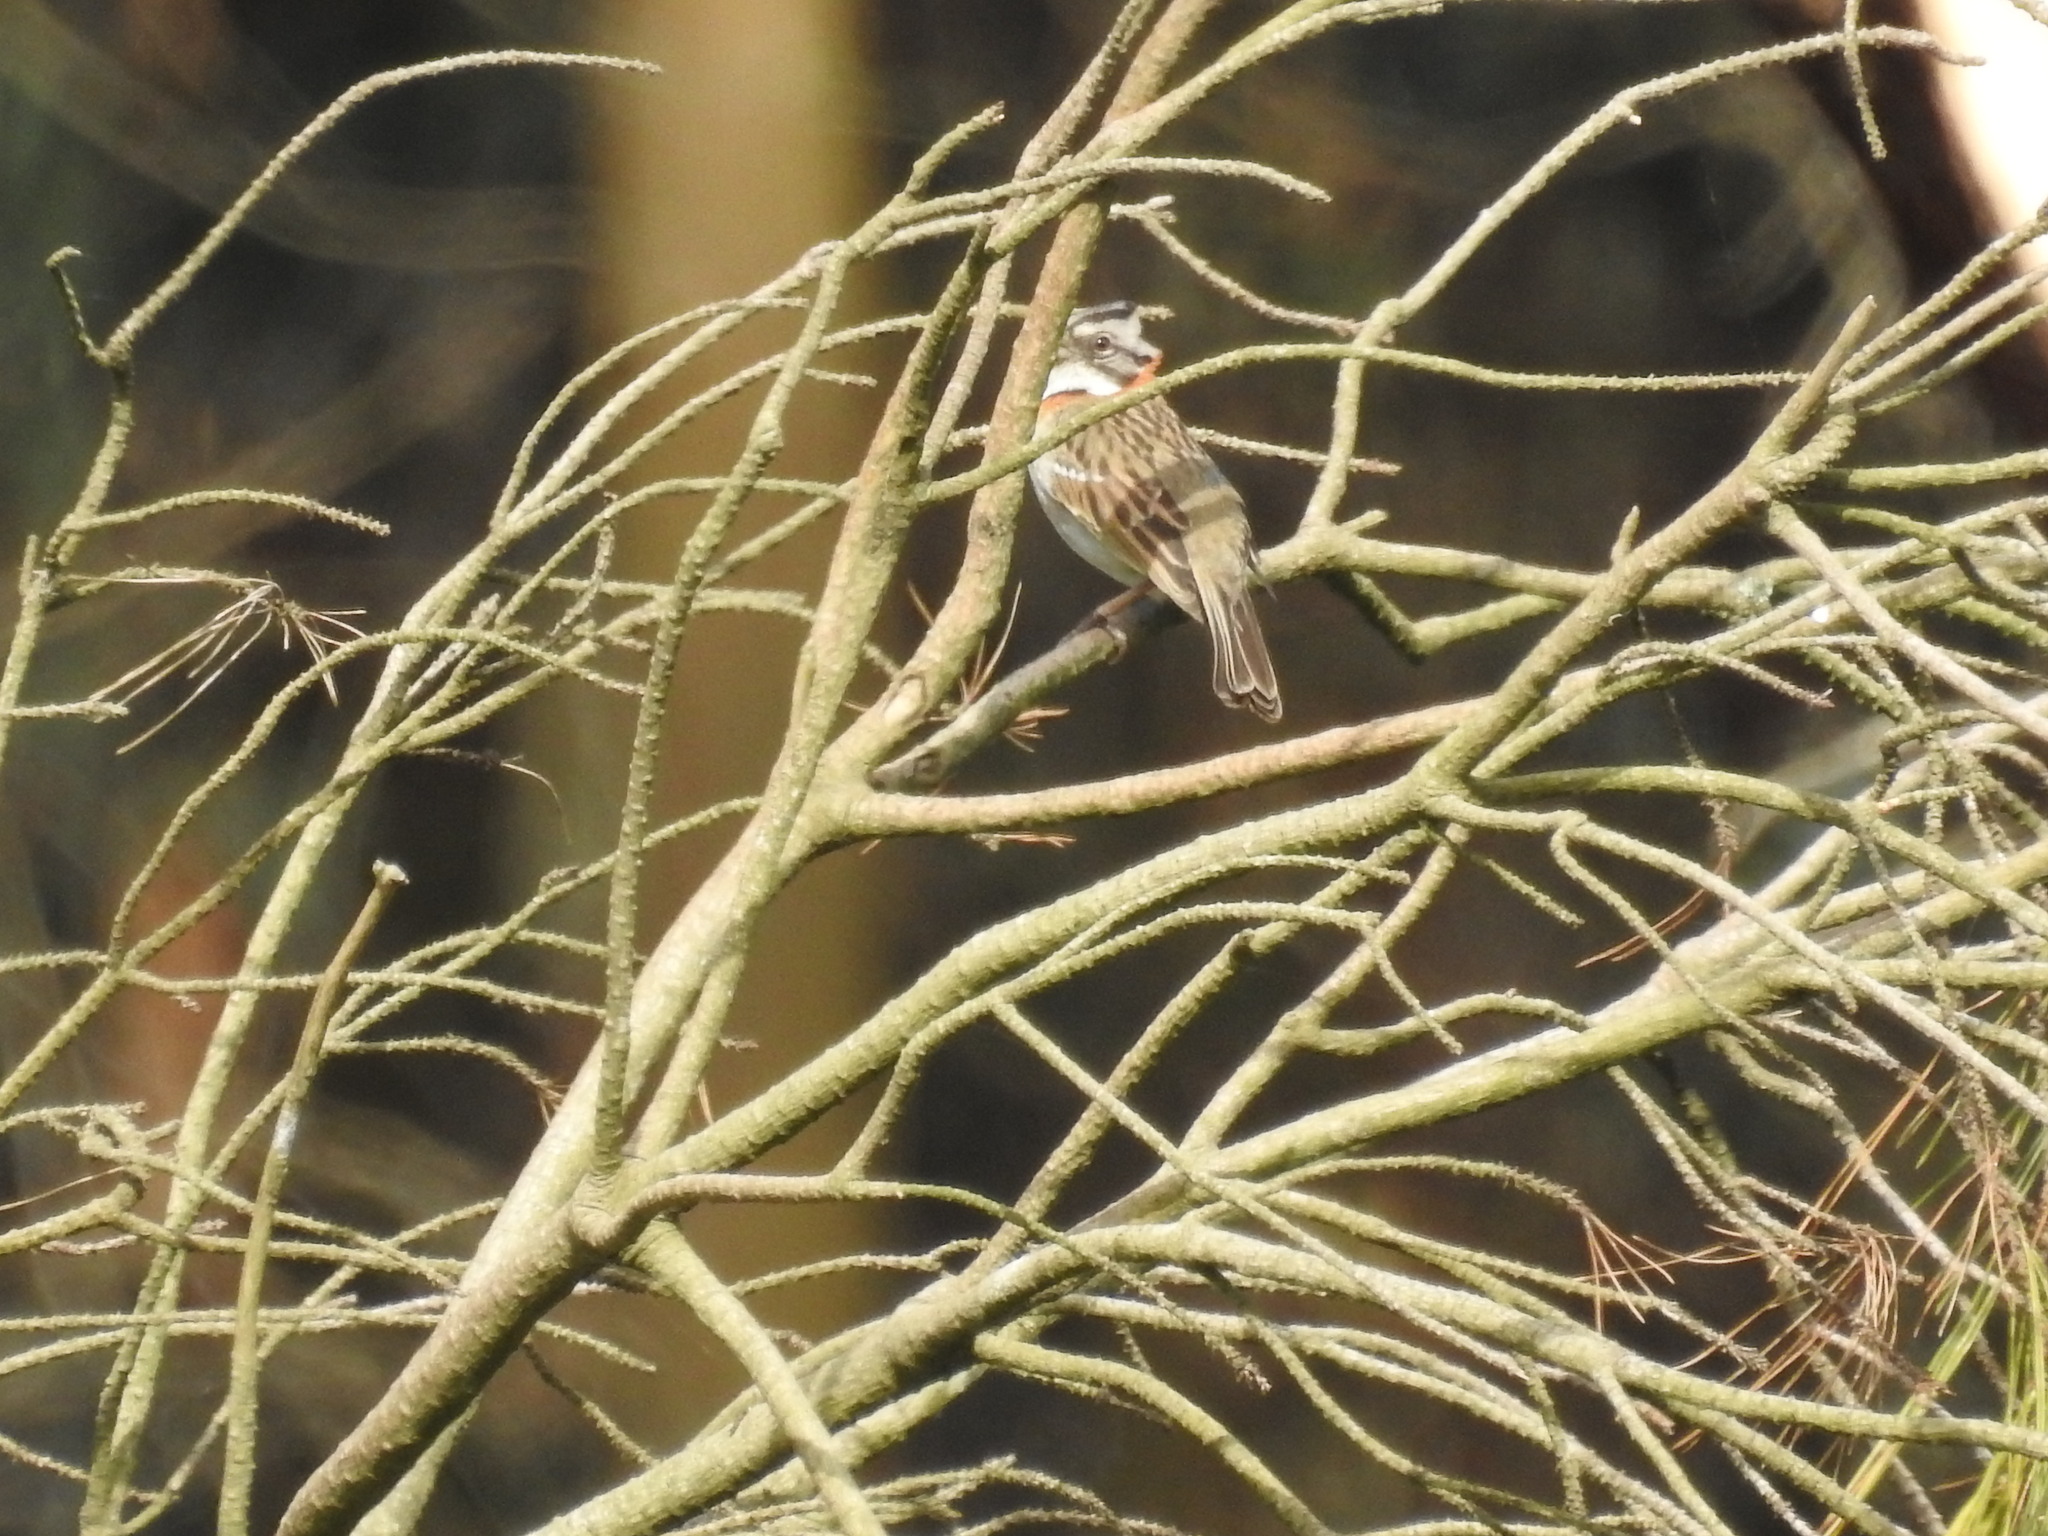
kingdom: Animalia
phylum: Chordata
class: Aves
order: Passeriformes
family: Passerellidae
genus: Zonotrichia
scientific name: Zonotrichia capensis
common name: Rufous-collared sparrow
